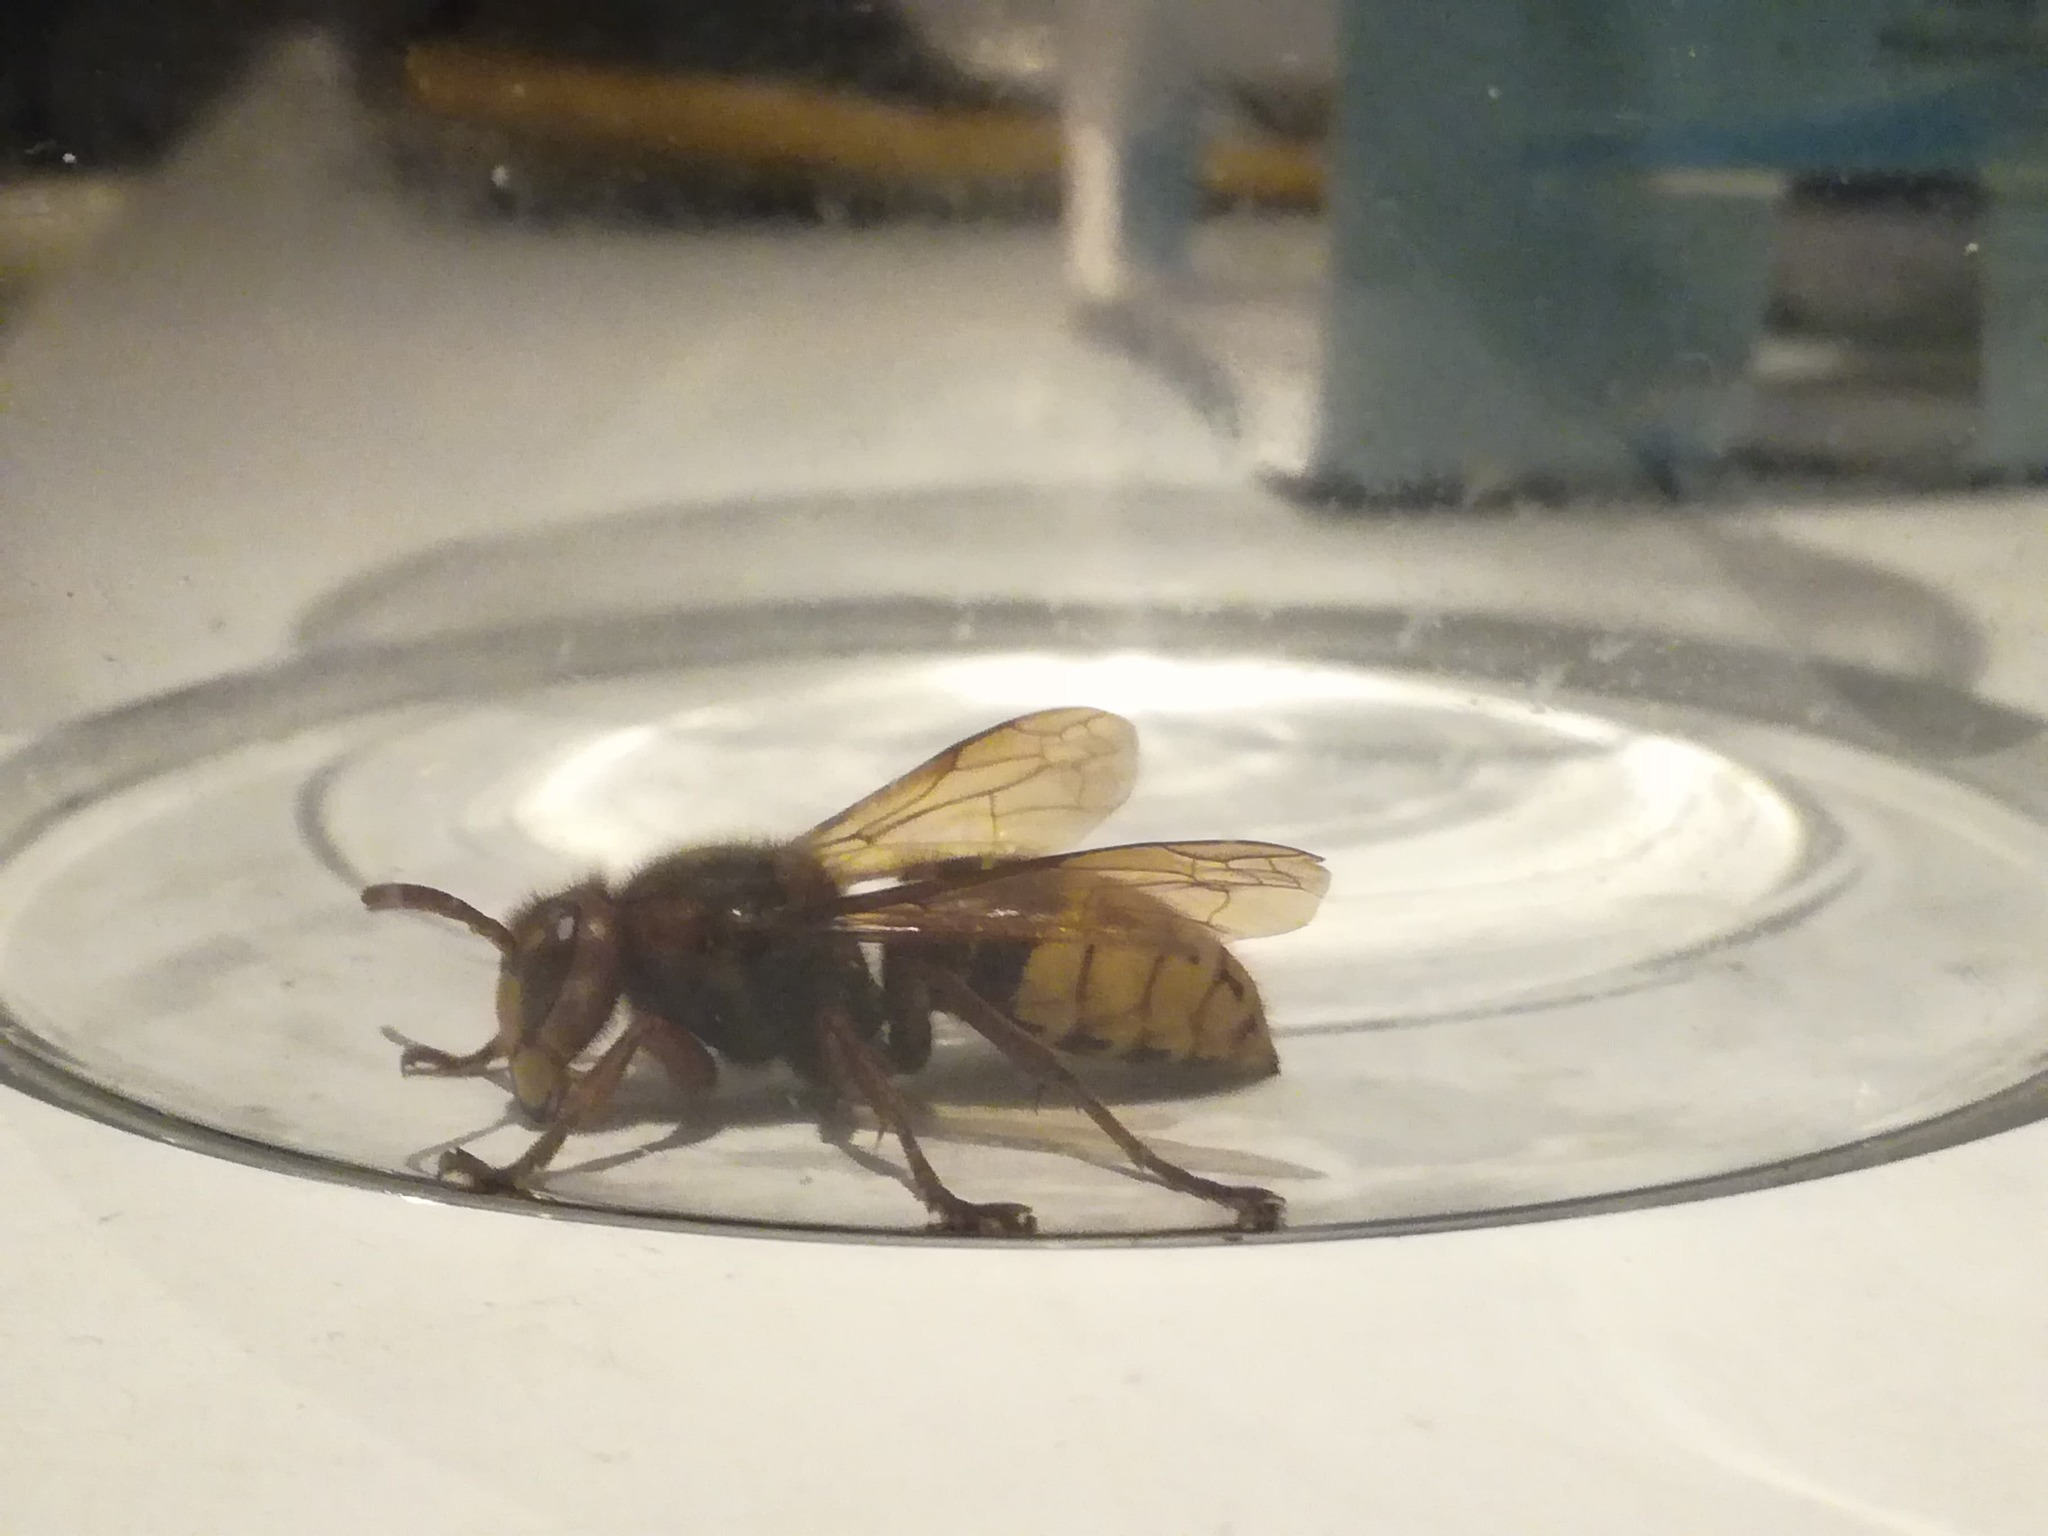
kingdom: Animalia
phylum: Arthropoda
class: Insecta
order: Hymenoptera
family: Vespidae
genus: Vespa
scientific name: Vespa crabro
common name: Hornet
